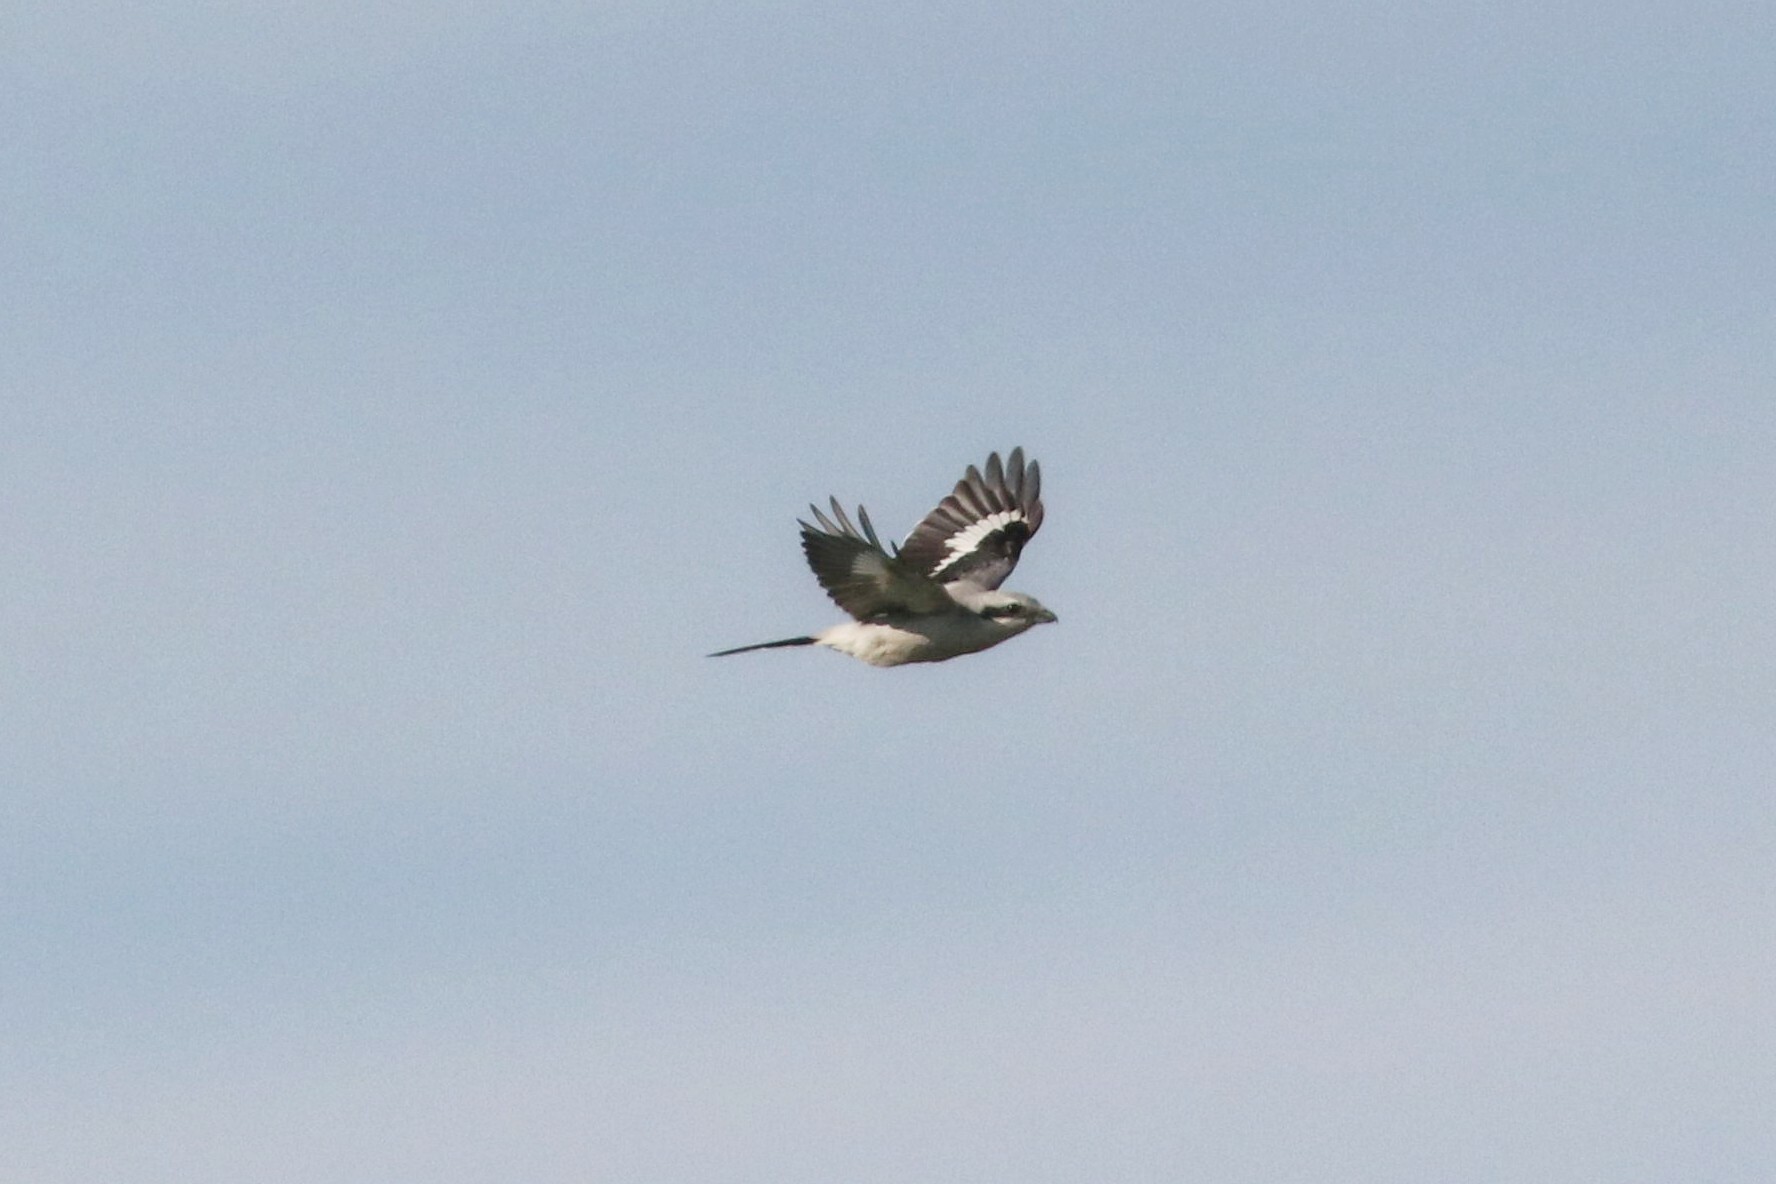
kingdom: Animalia
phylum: Chordata
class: Aves
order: Passeriformes
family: Laniidae
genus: Lanius
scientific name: Lanius excubitor
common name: Great grey shrike
